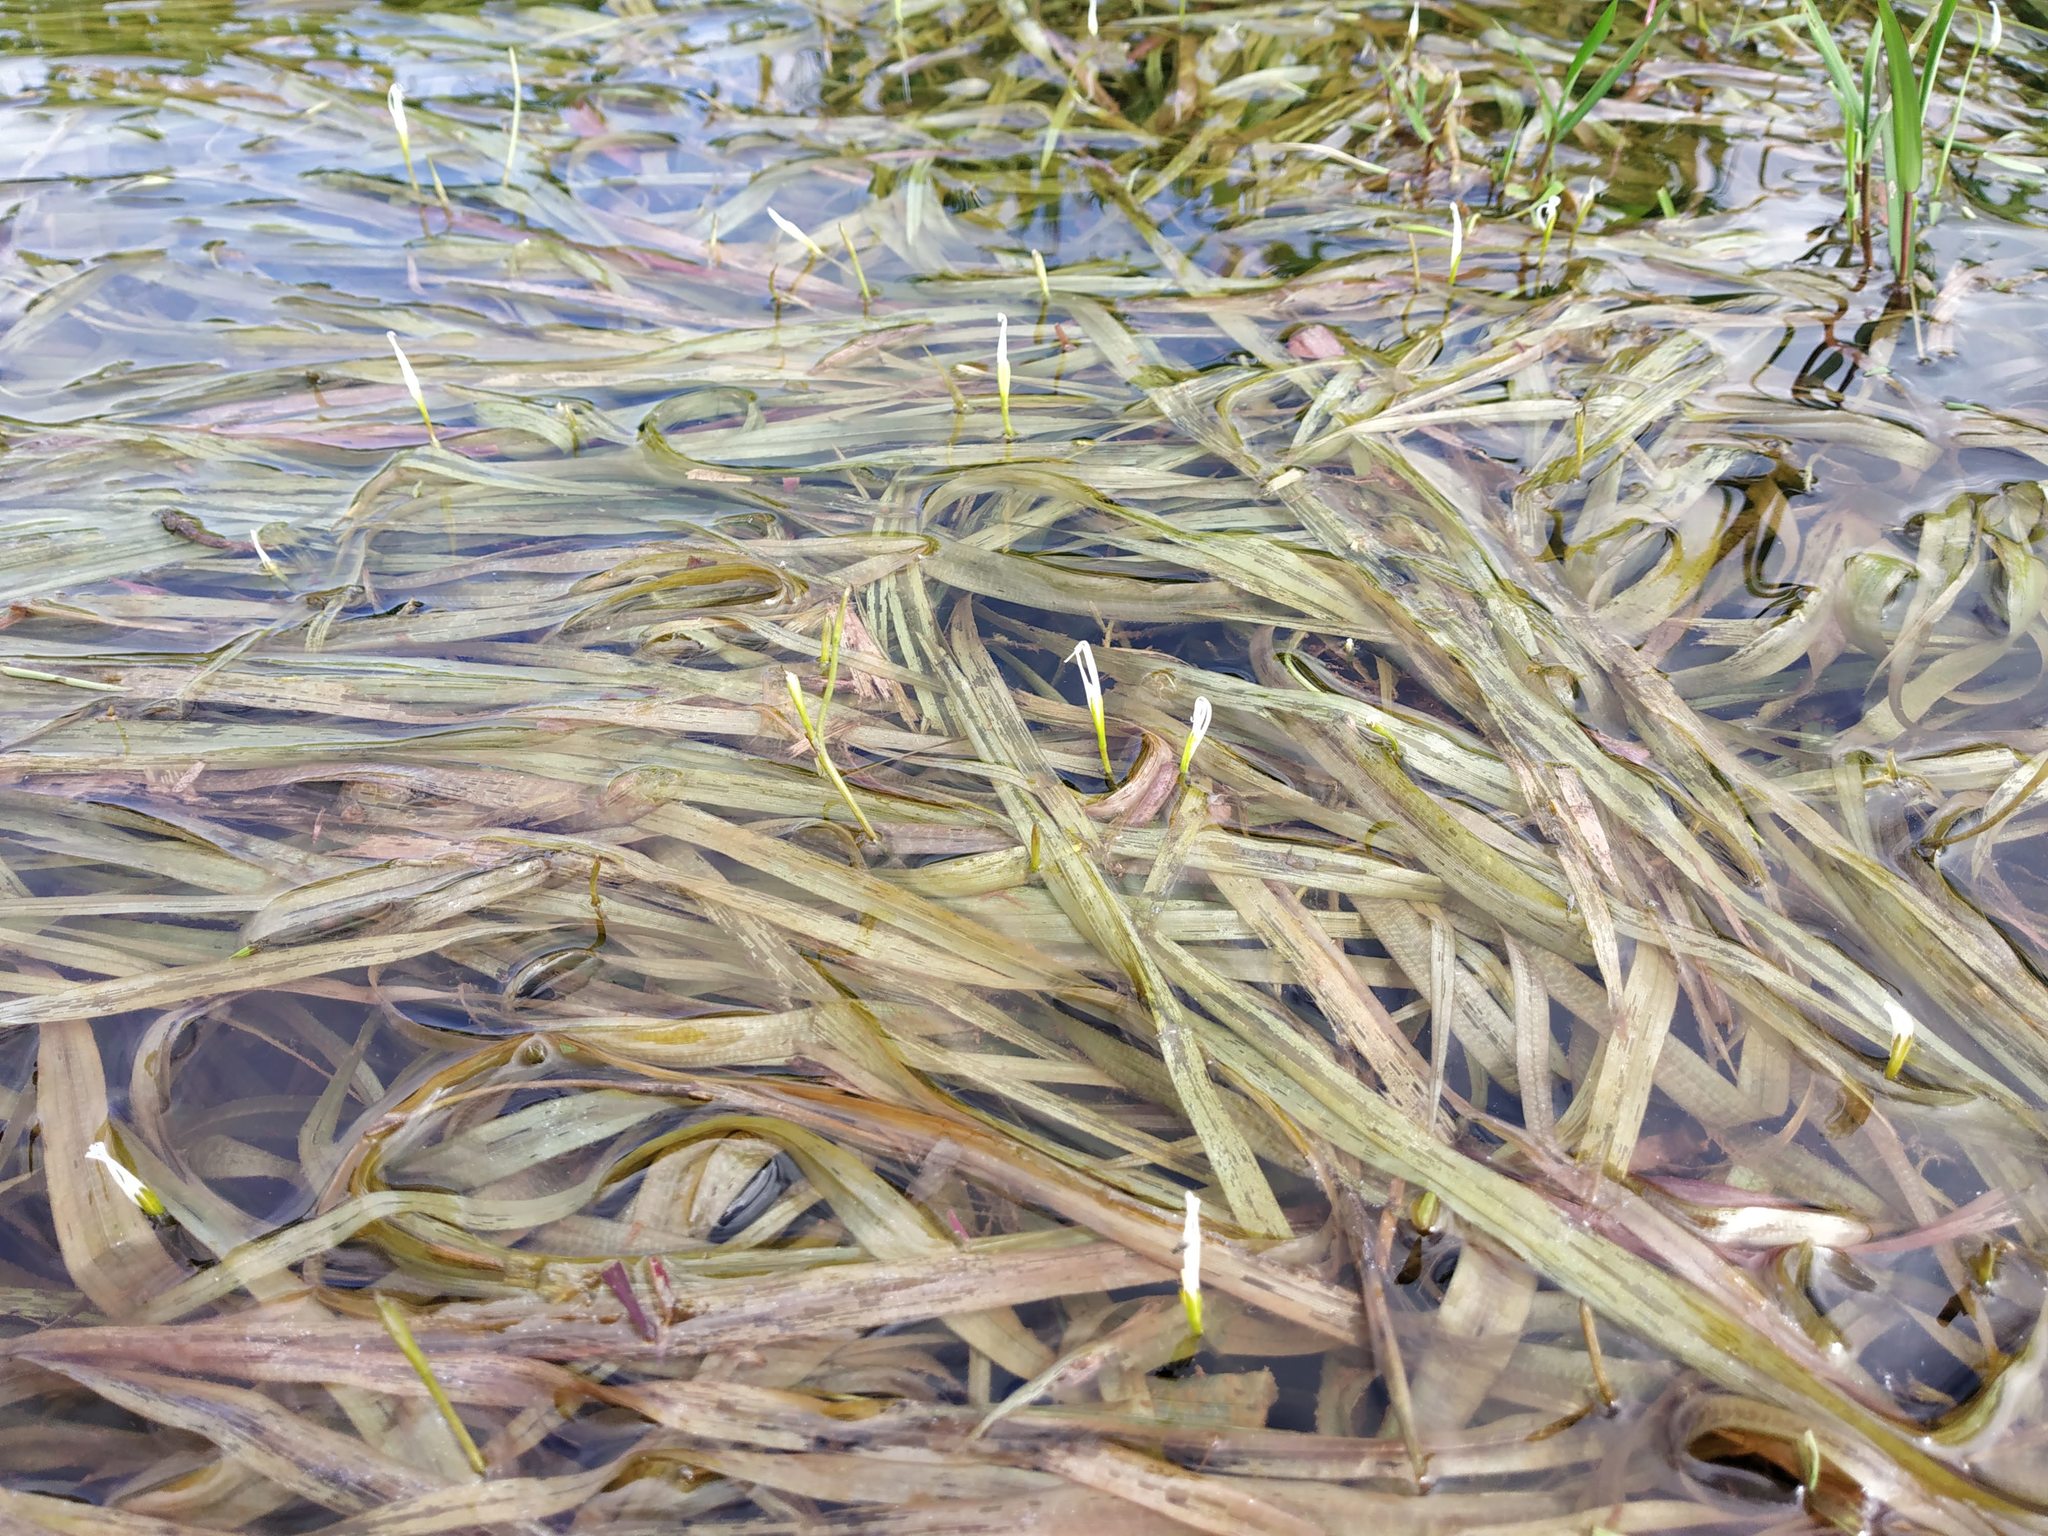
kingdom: Plantae
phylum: Tracheophyta
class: Liliopsida
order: Alismatales
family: Hydrocharitaceae
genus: Blyxa
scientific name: Blyxa echinosperma
